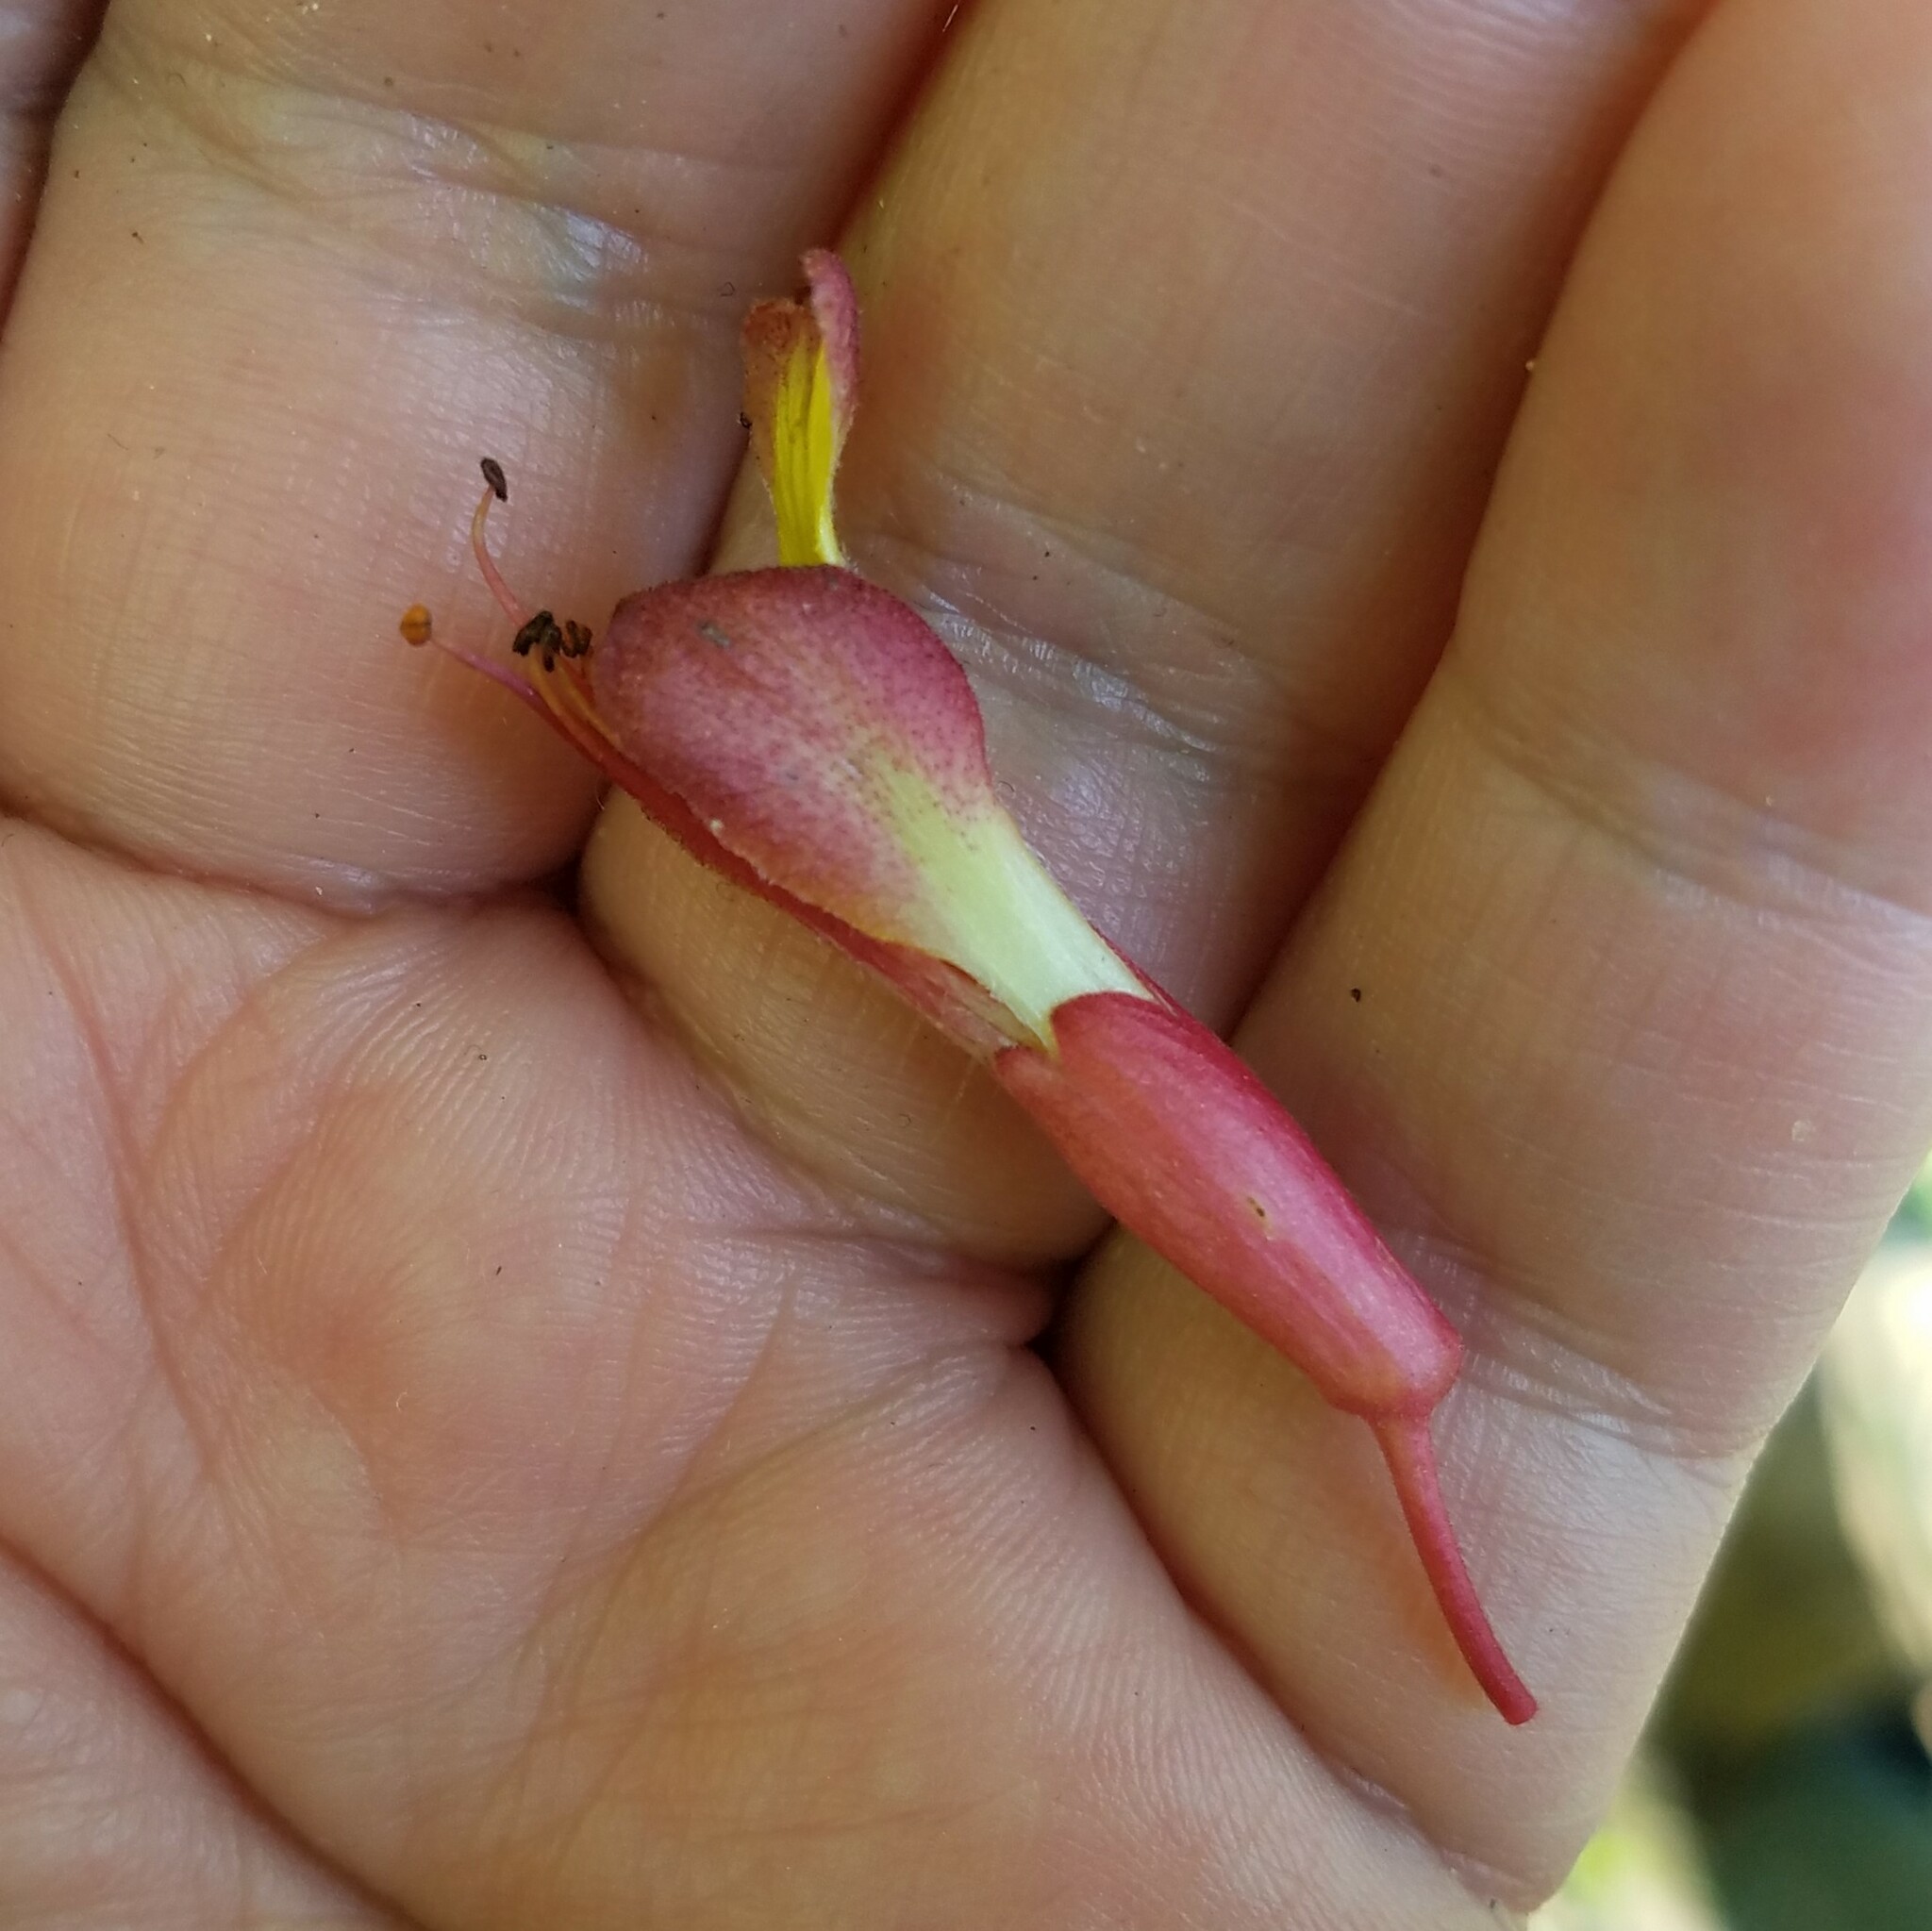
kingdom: Plantae
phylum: Tracheophyta
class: Magnoliopsida
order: Sapindales
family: Sapindaceae
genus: Aesculus
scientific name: Aesculus pavia
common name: Red buckeye
